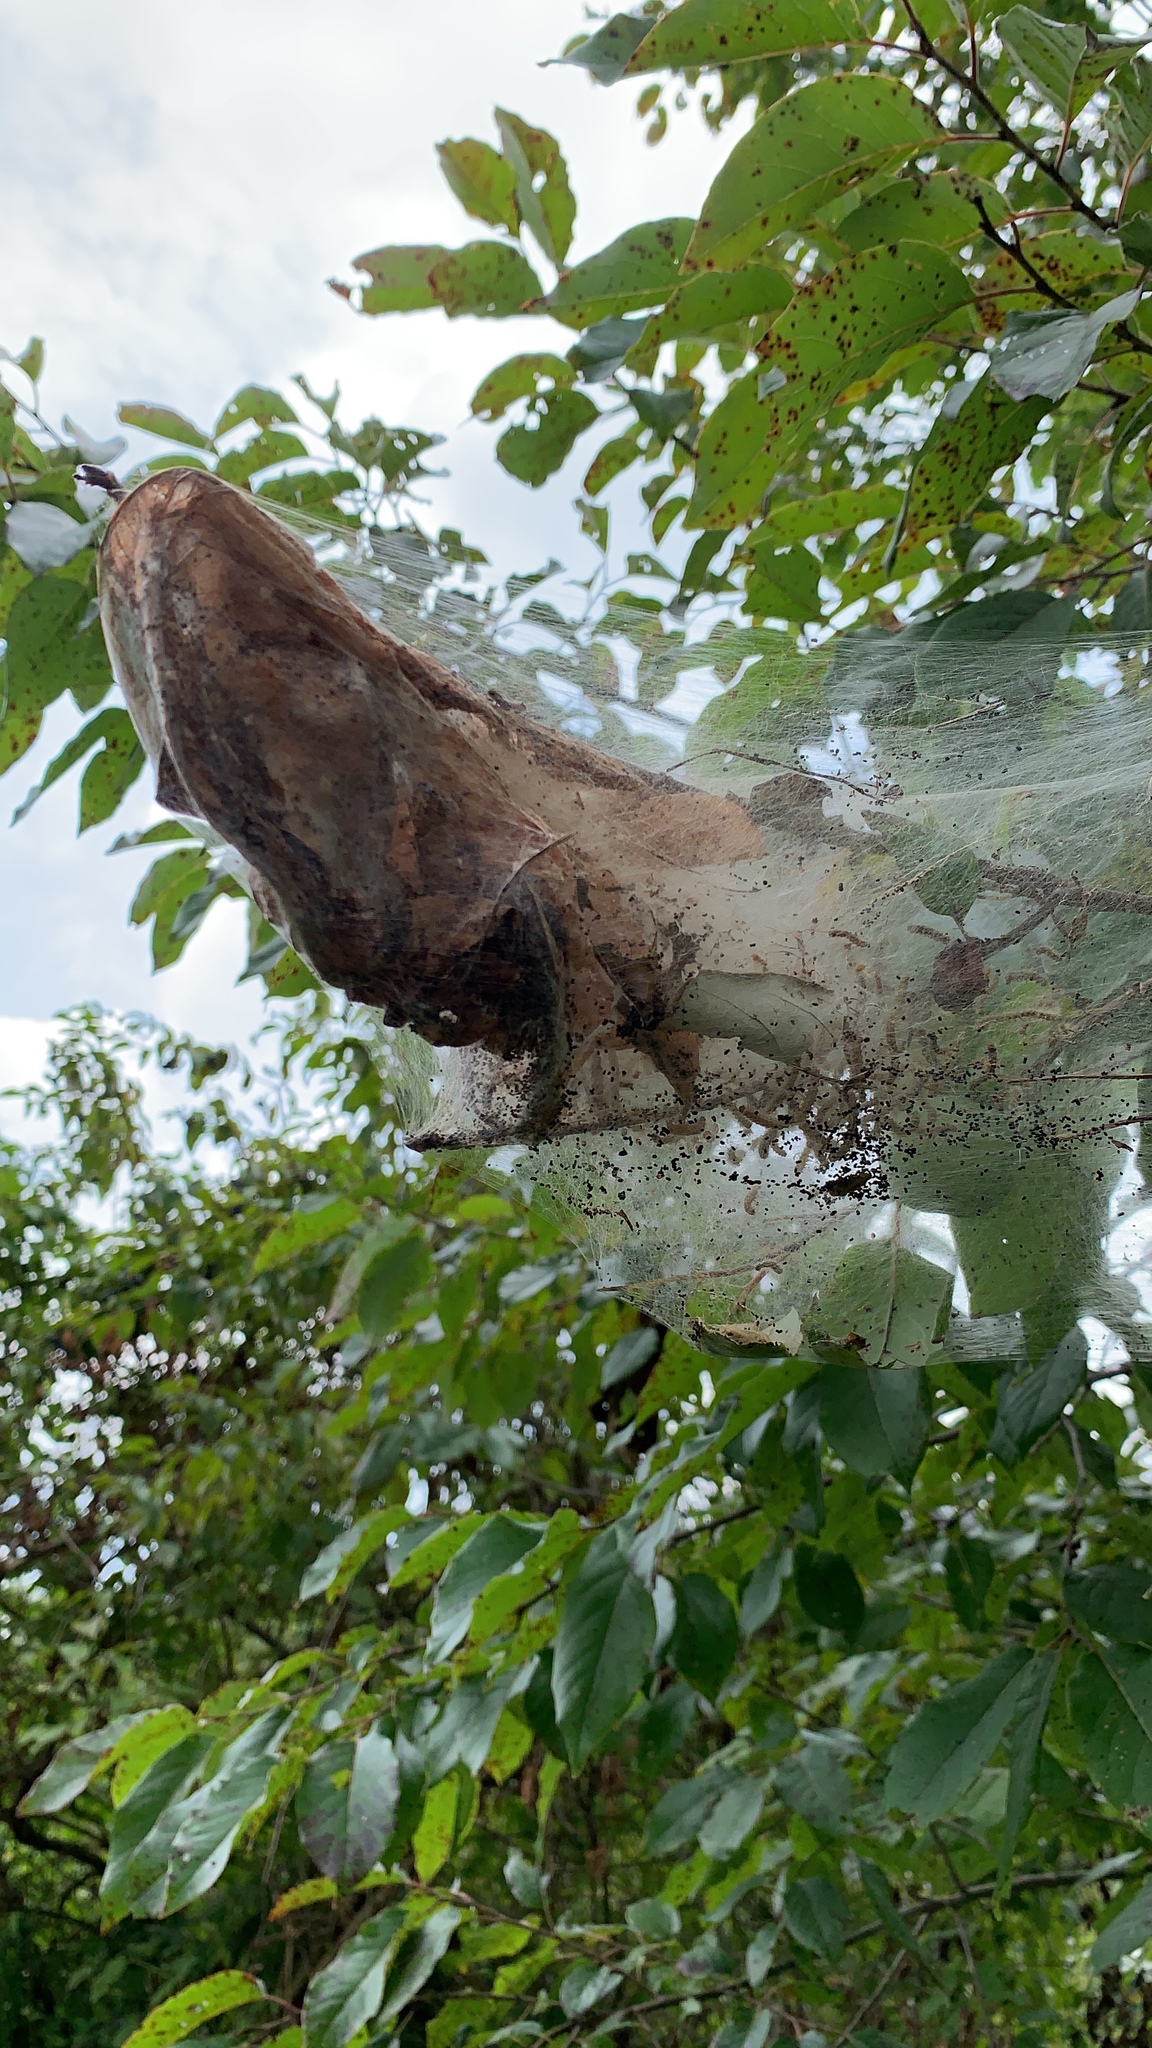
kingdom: Animalia
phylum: Arthropoda
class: Insecta
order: Lepidoptera
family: Erebidae
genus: Hyphantria
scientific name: Hyphantria cunea
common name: American white moth
